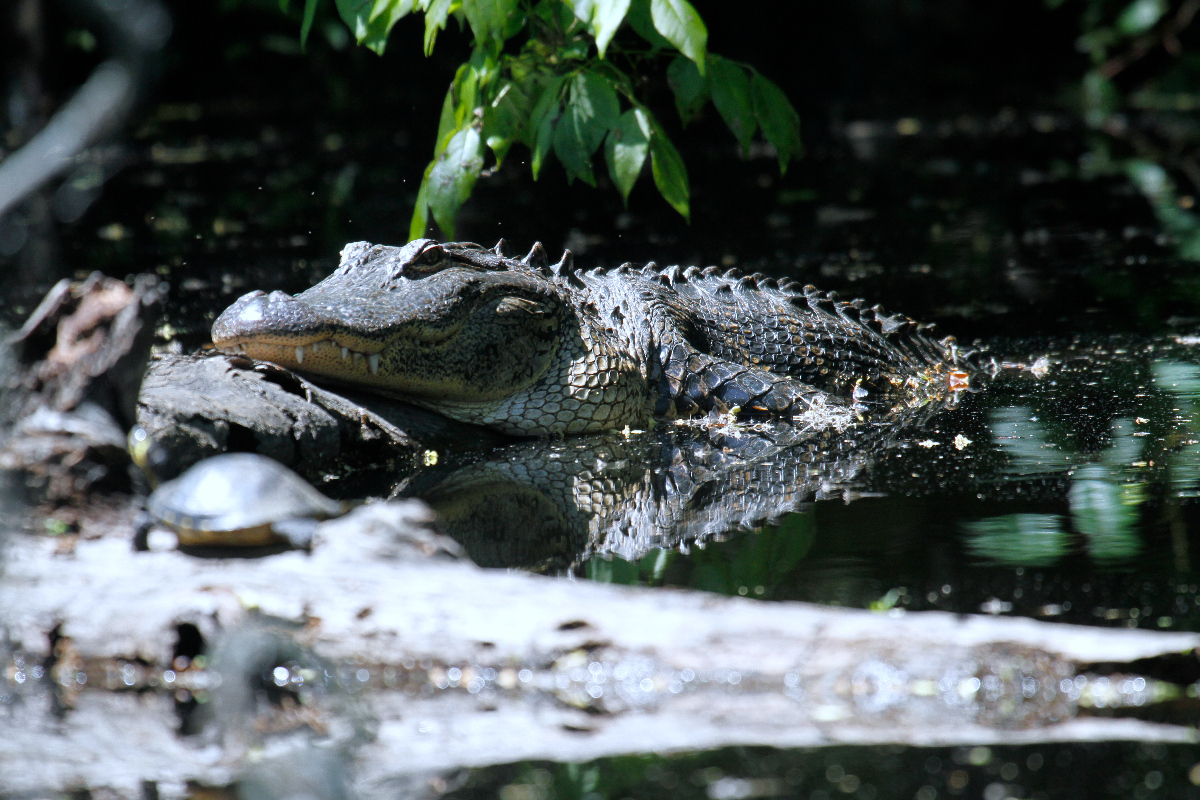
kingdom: Animalia
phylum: Chordata
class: Crocodylia
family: Alligatoridae
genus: Alligator
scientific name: Alligator mississippiensis
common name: American alligator
